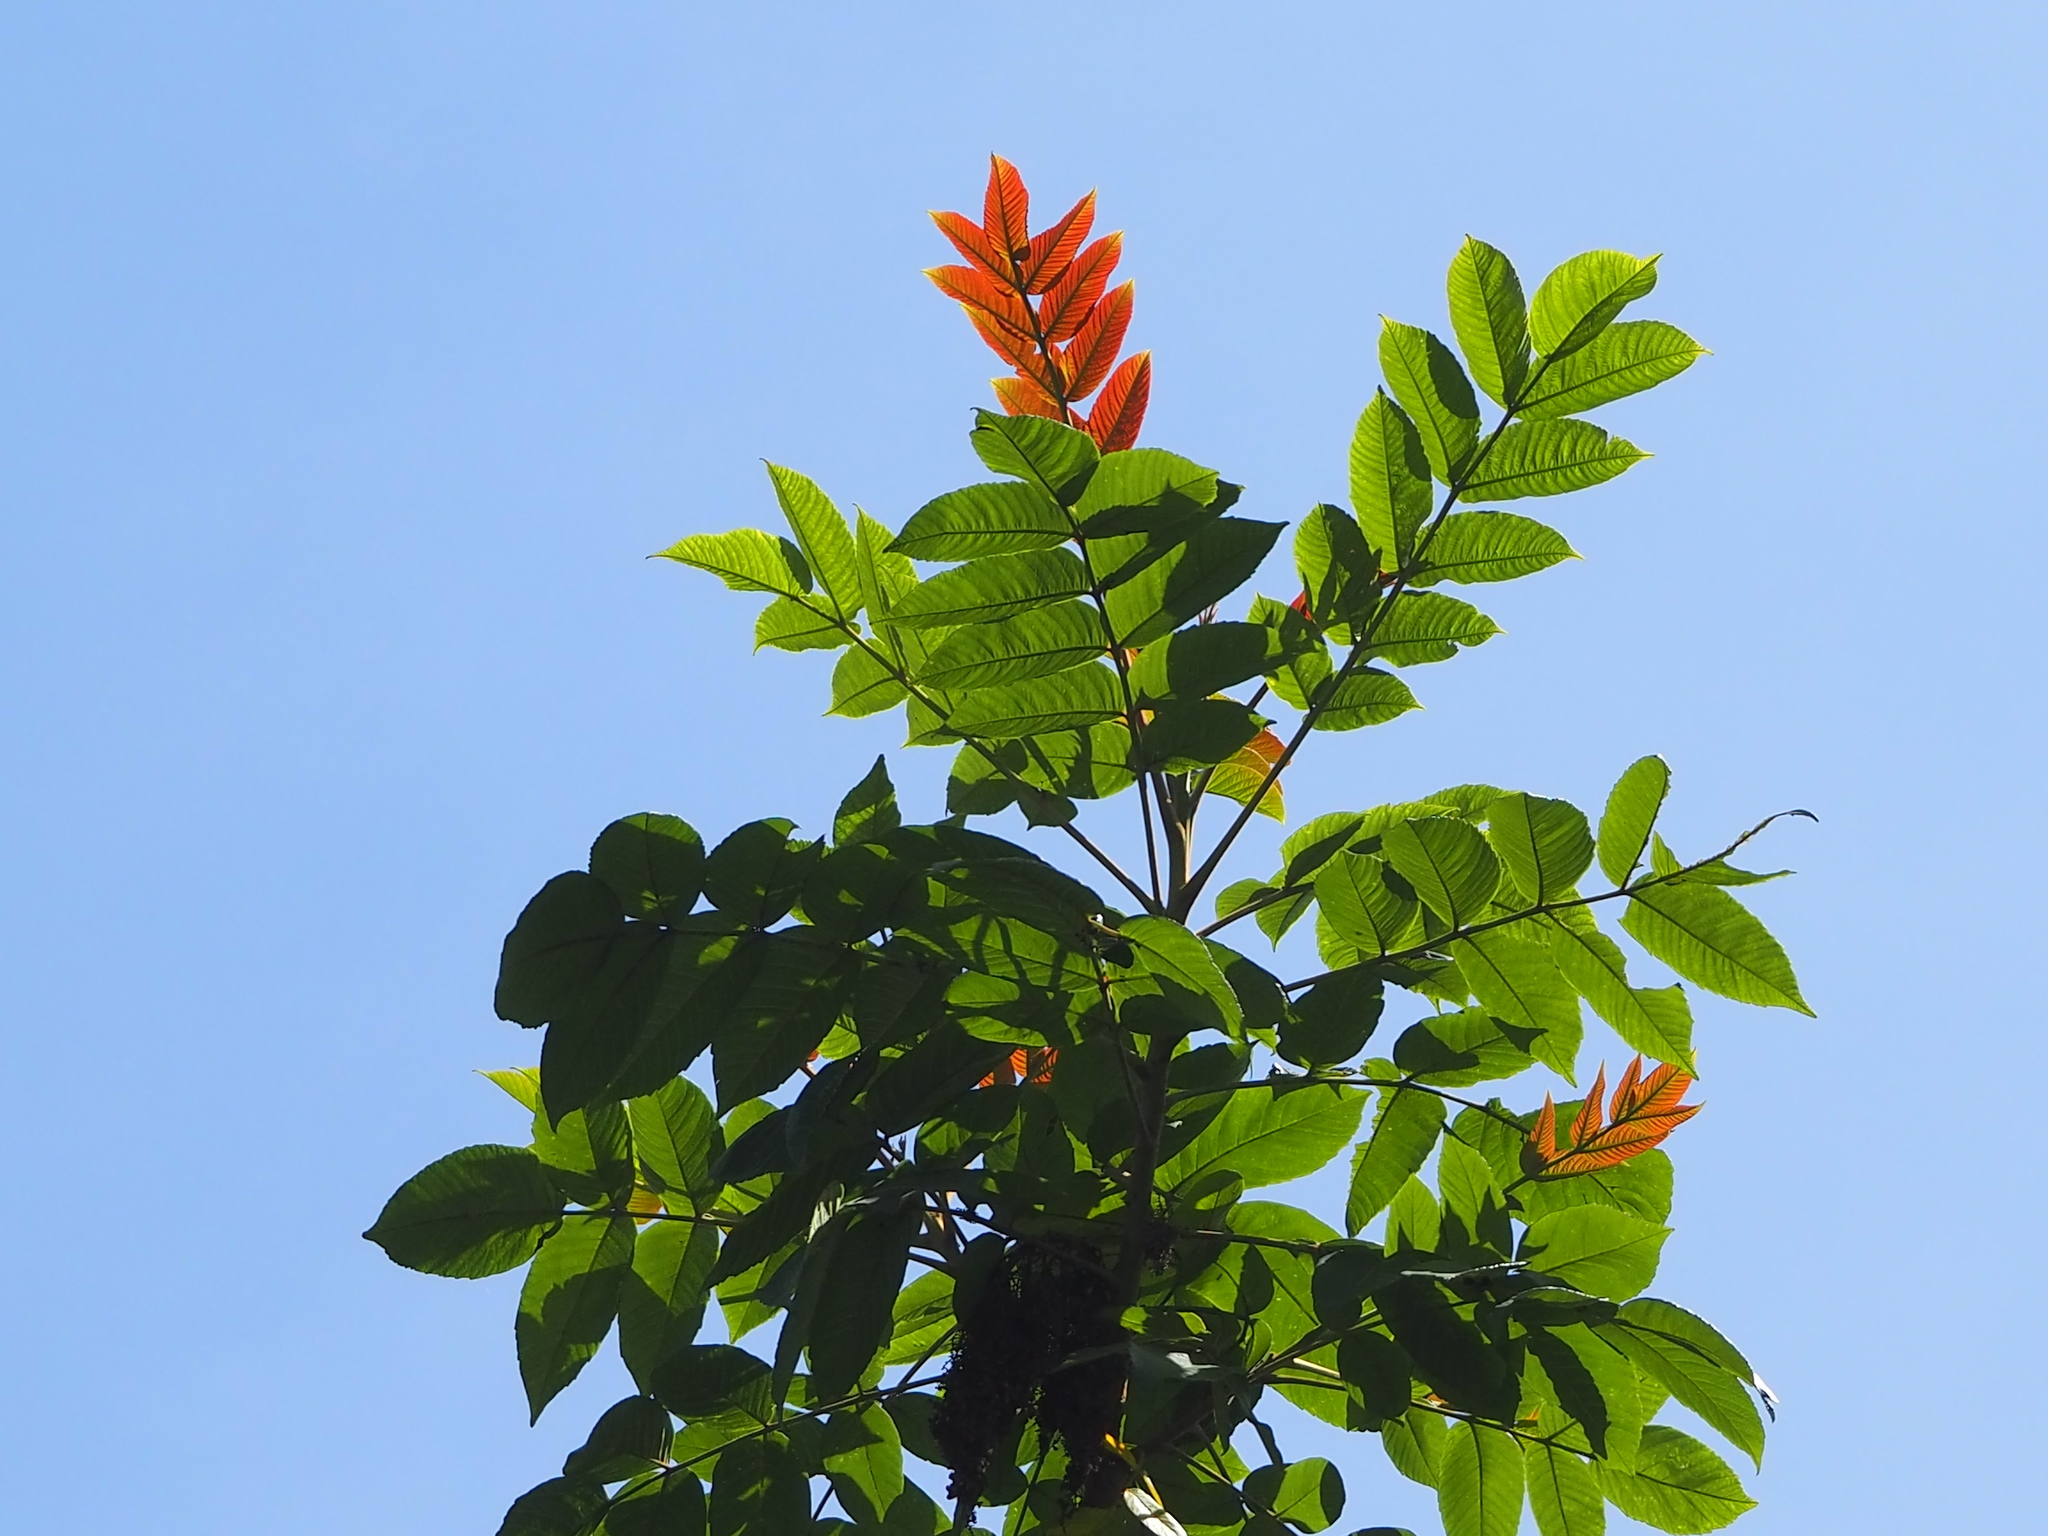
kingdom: Plantae
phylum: Tracheophyta
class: Magnoliopsida
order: Sapindales
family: Anacardiaceae
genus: Rhus
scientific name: Rhus chinensis
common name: Chinese gall
